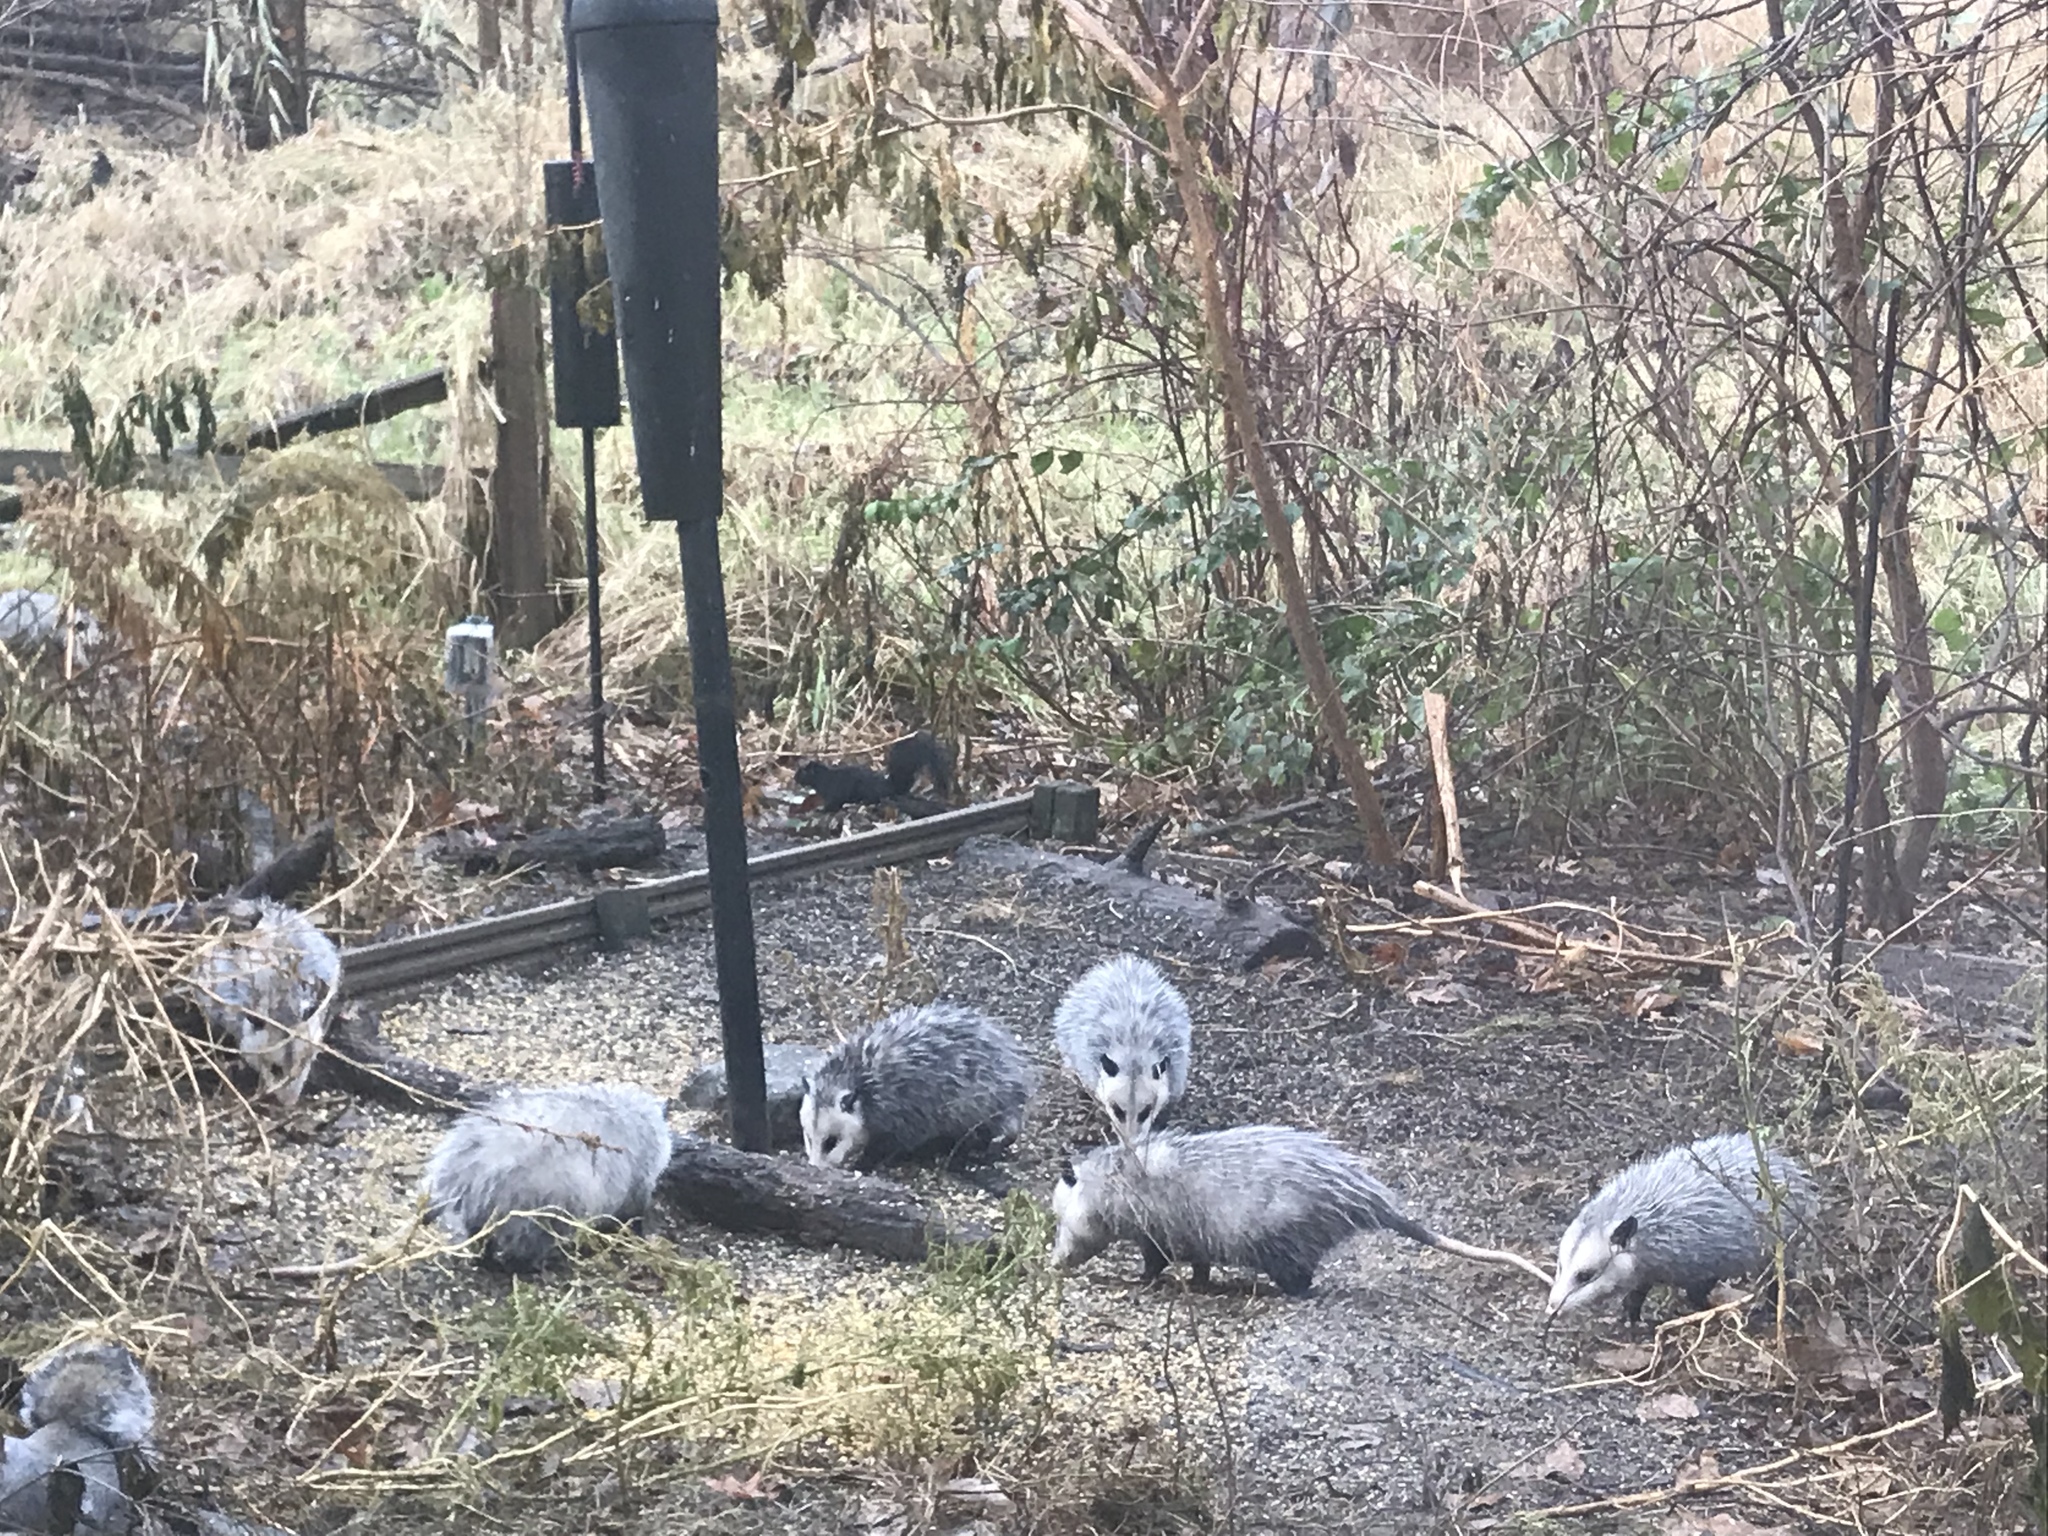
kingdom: Animalia
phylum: Chordata
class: Mammalia
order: Didelphimorphia
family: Didelphidae
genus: Didelphis
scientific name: Didelphis virginiana
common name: Virginia opossum
